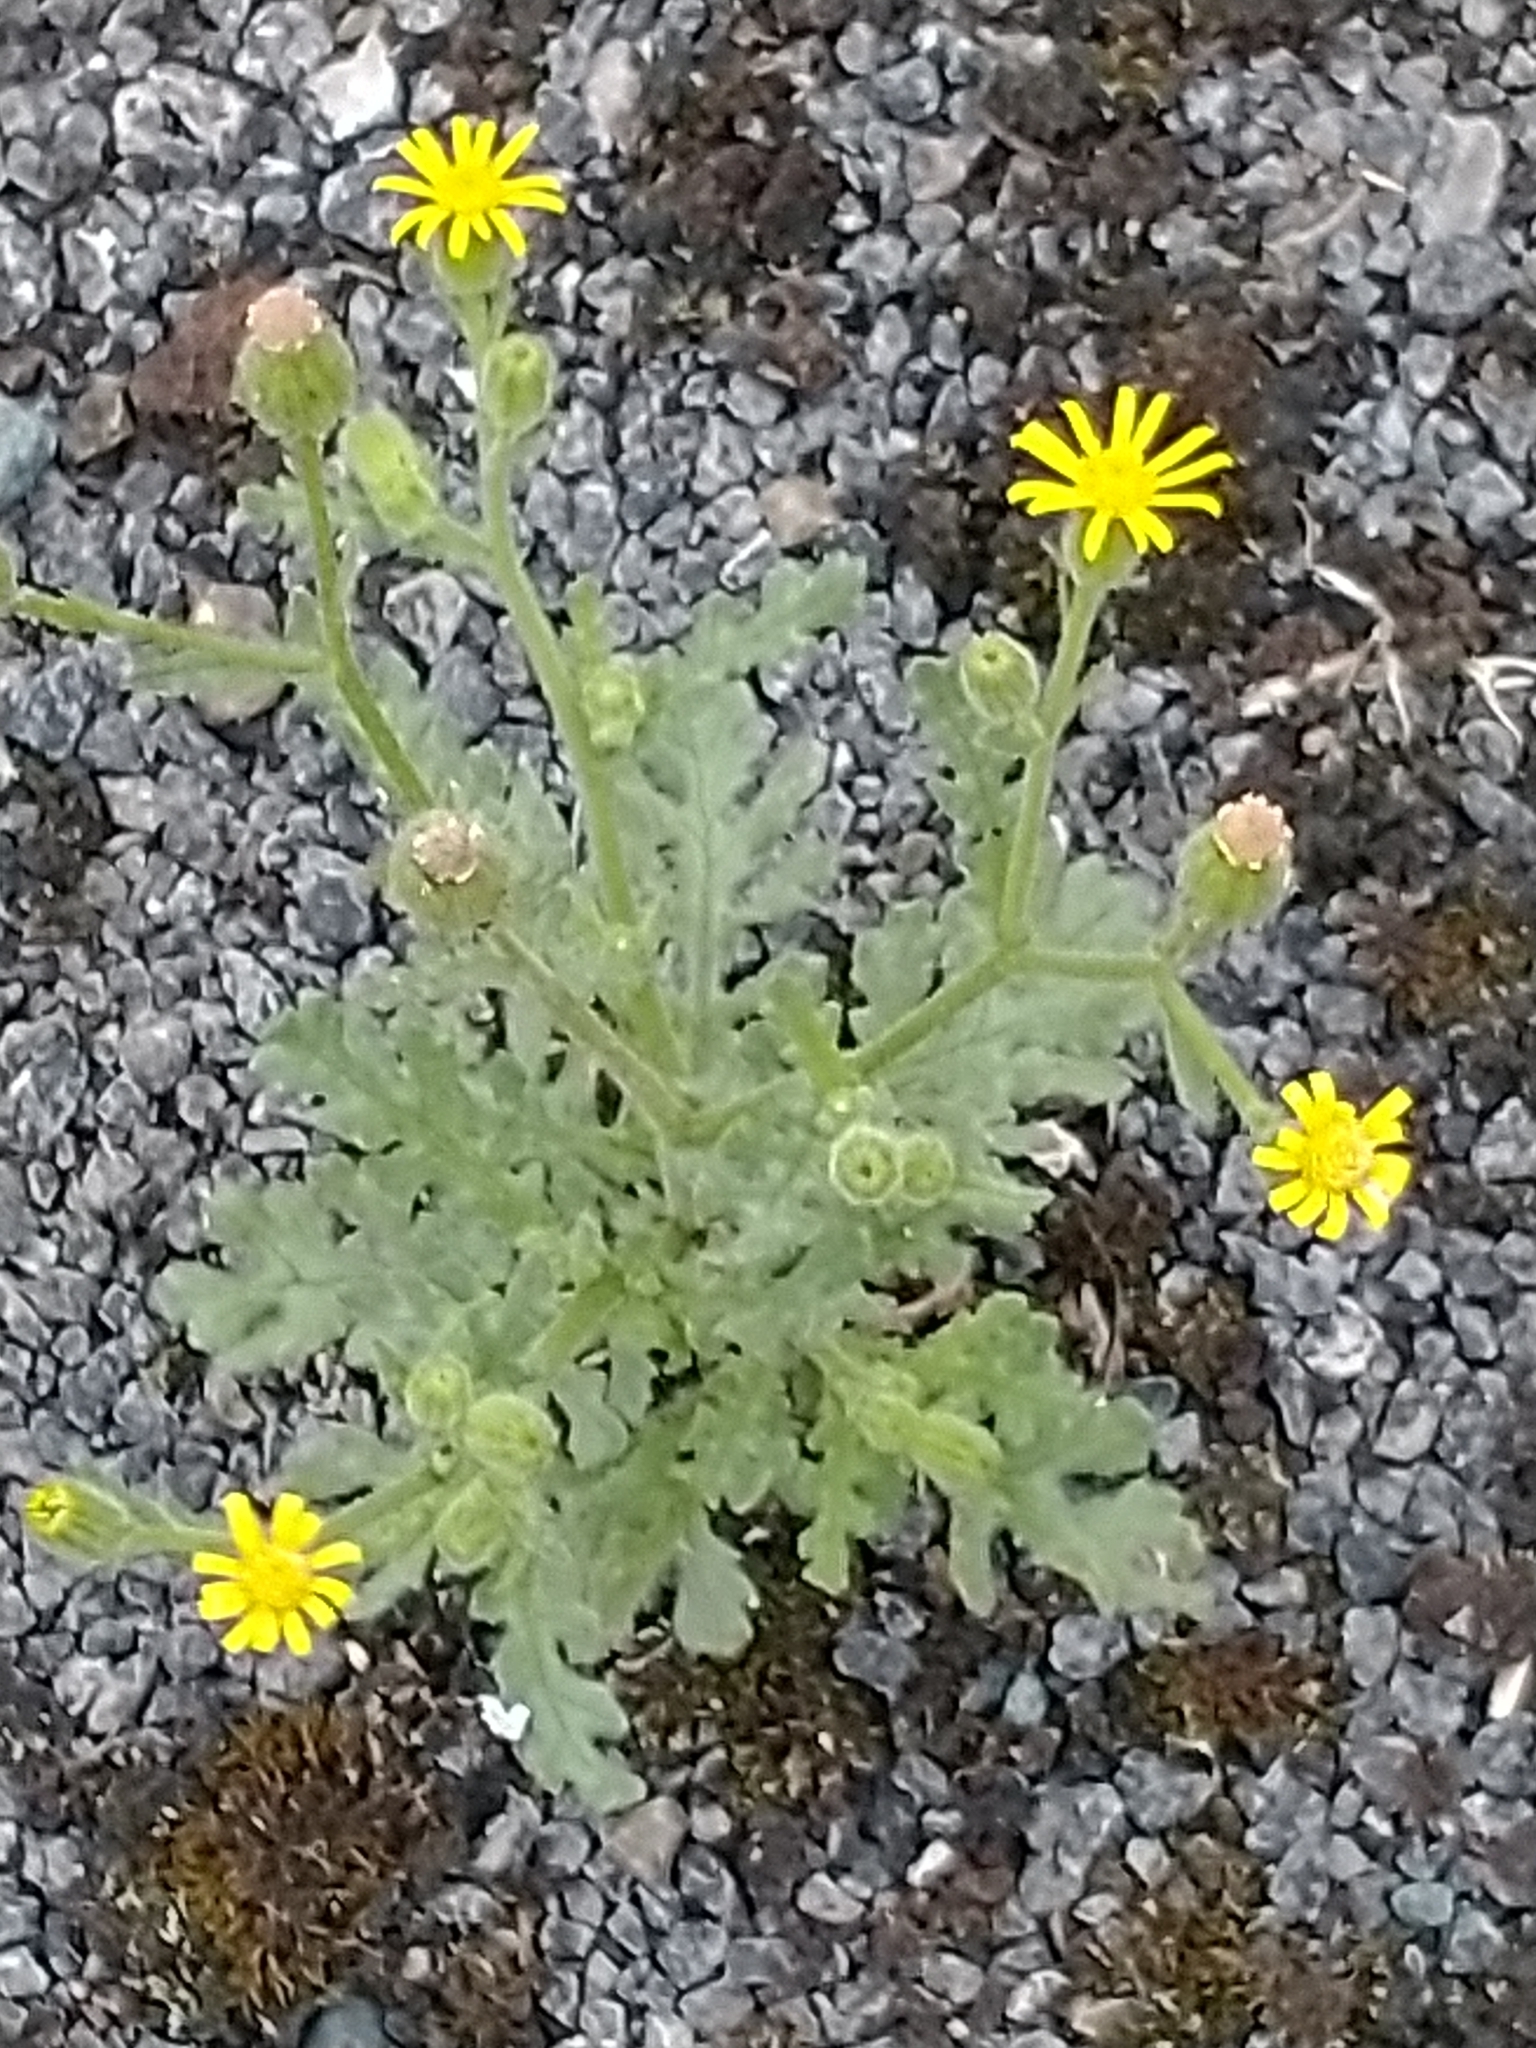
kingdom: Plantae
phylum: Tracheophyta
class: Magnoliopsida
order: Asterales
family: Asteraceae
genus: Senecio
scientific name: Senecio viscosus
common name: Sticky groundsel
